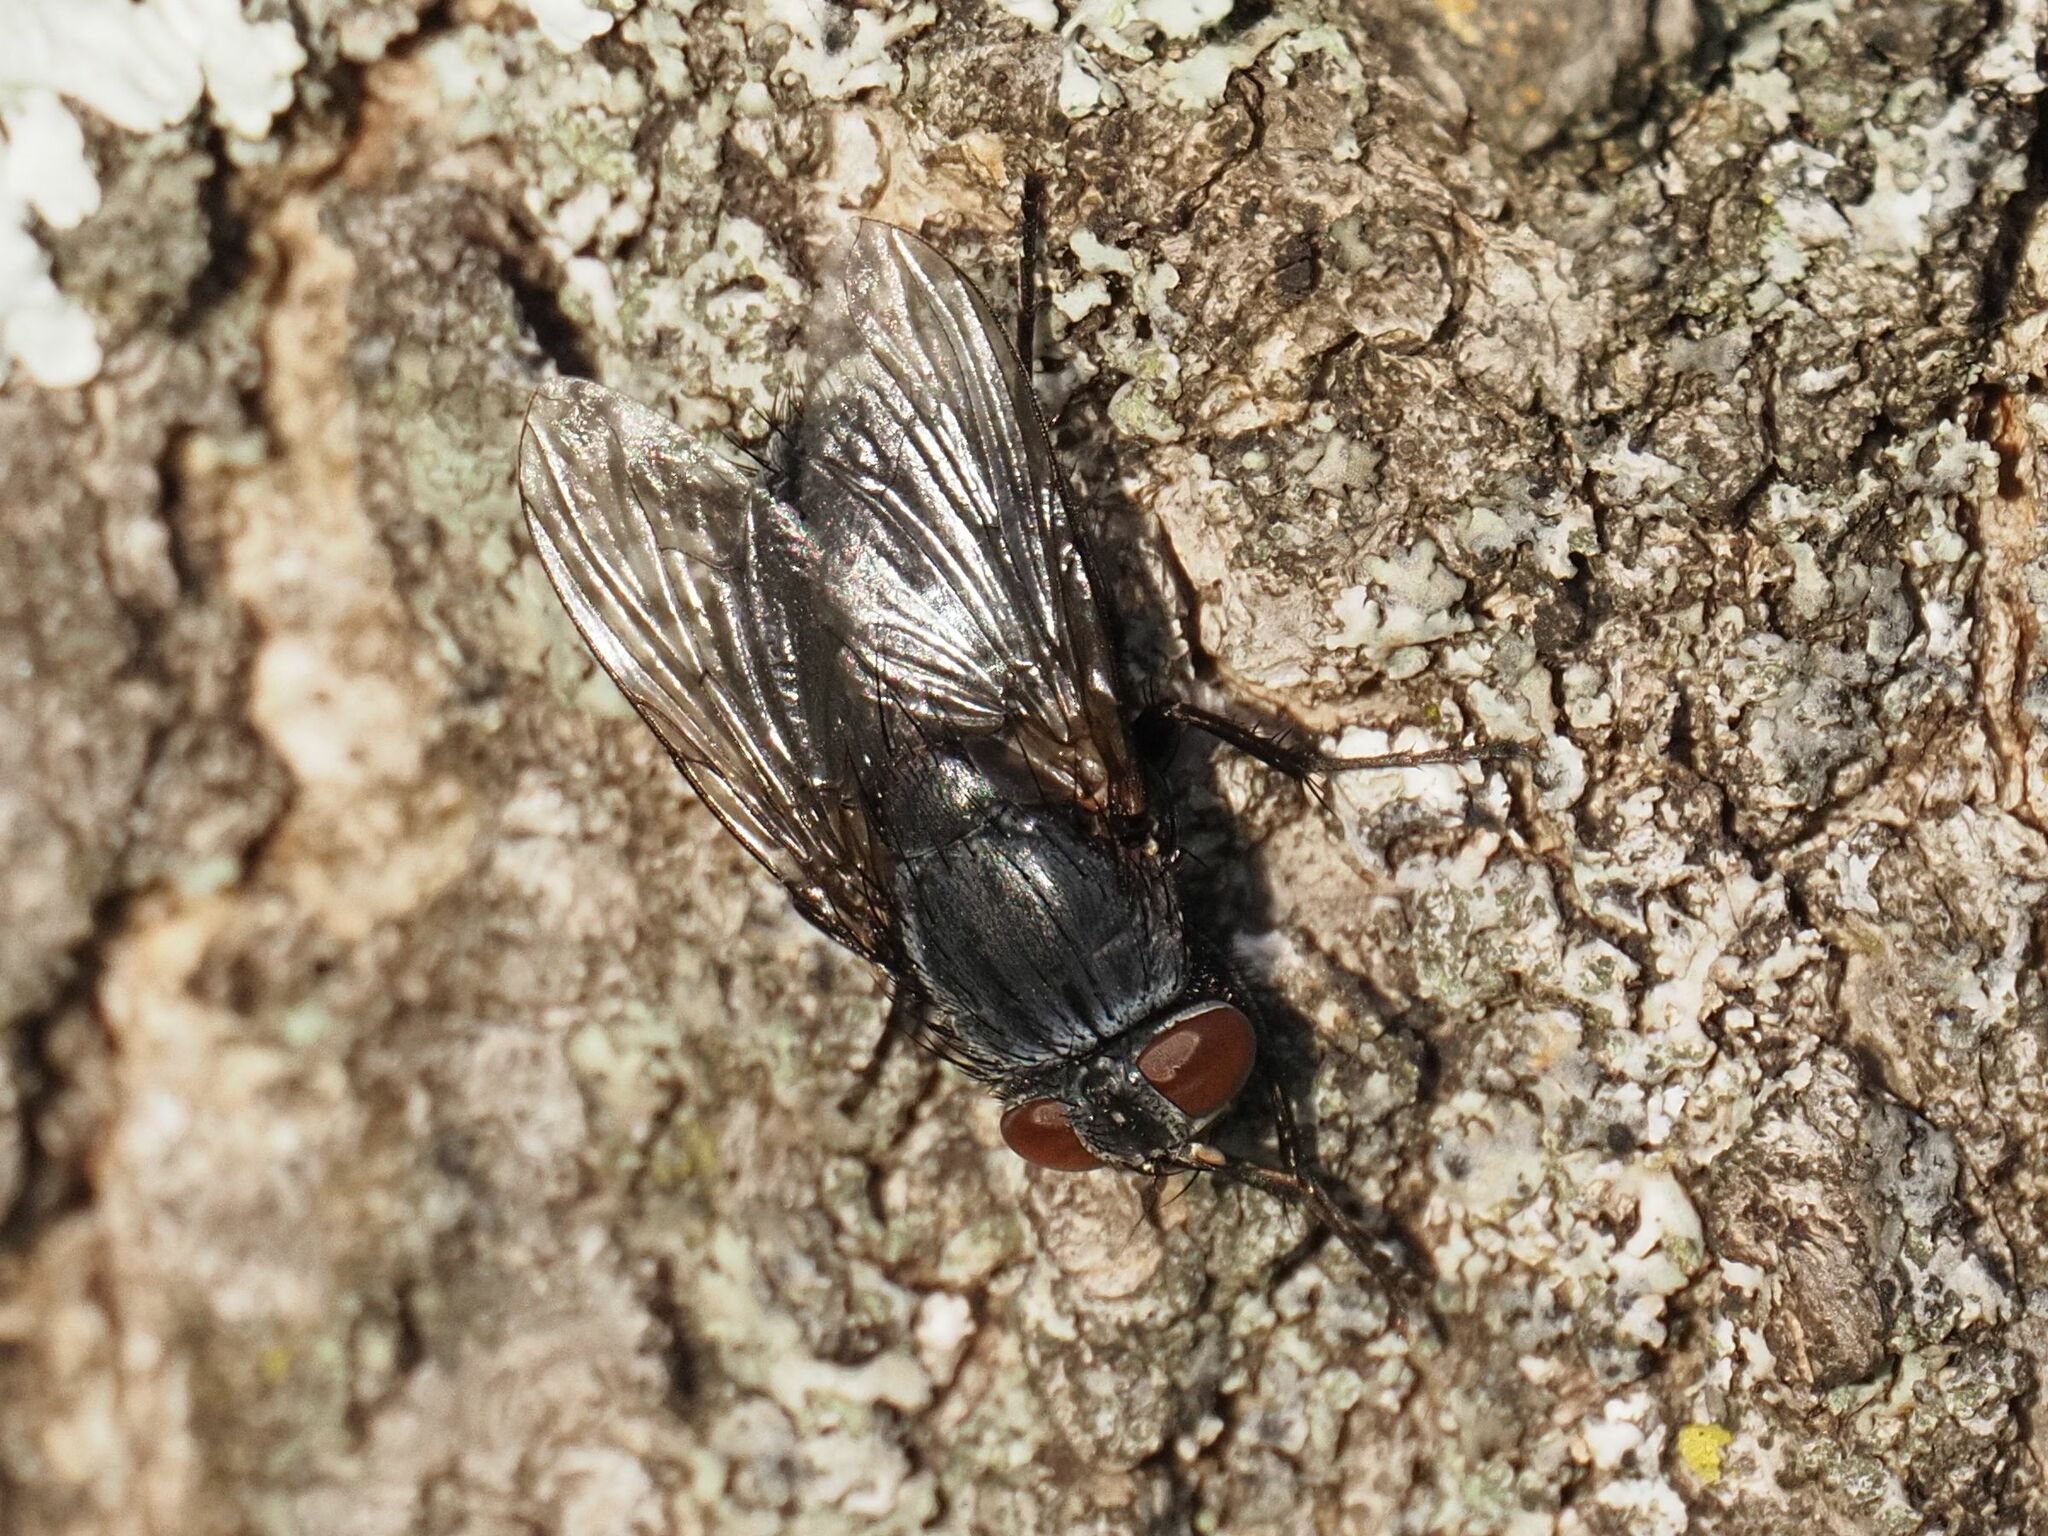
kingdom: Animalia
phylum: Arthropoda
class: Insecta
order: Diptera
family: Muscidae
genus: Muscina
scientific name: Muscina pascuorum
